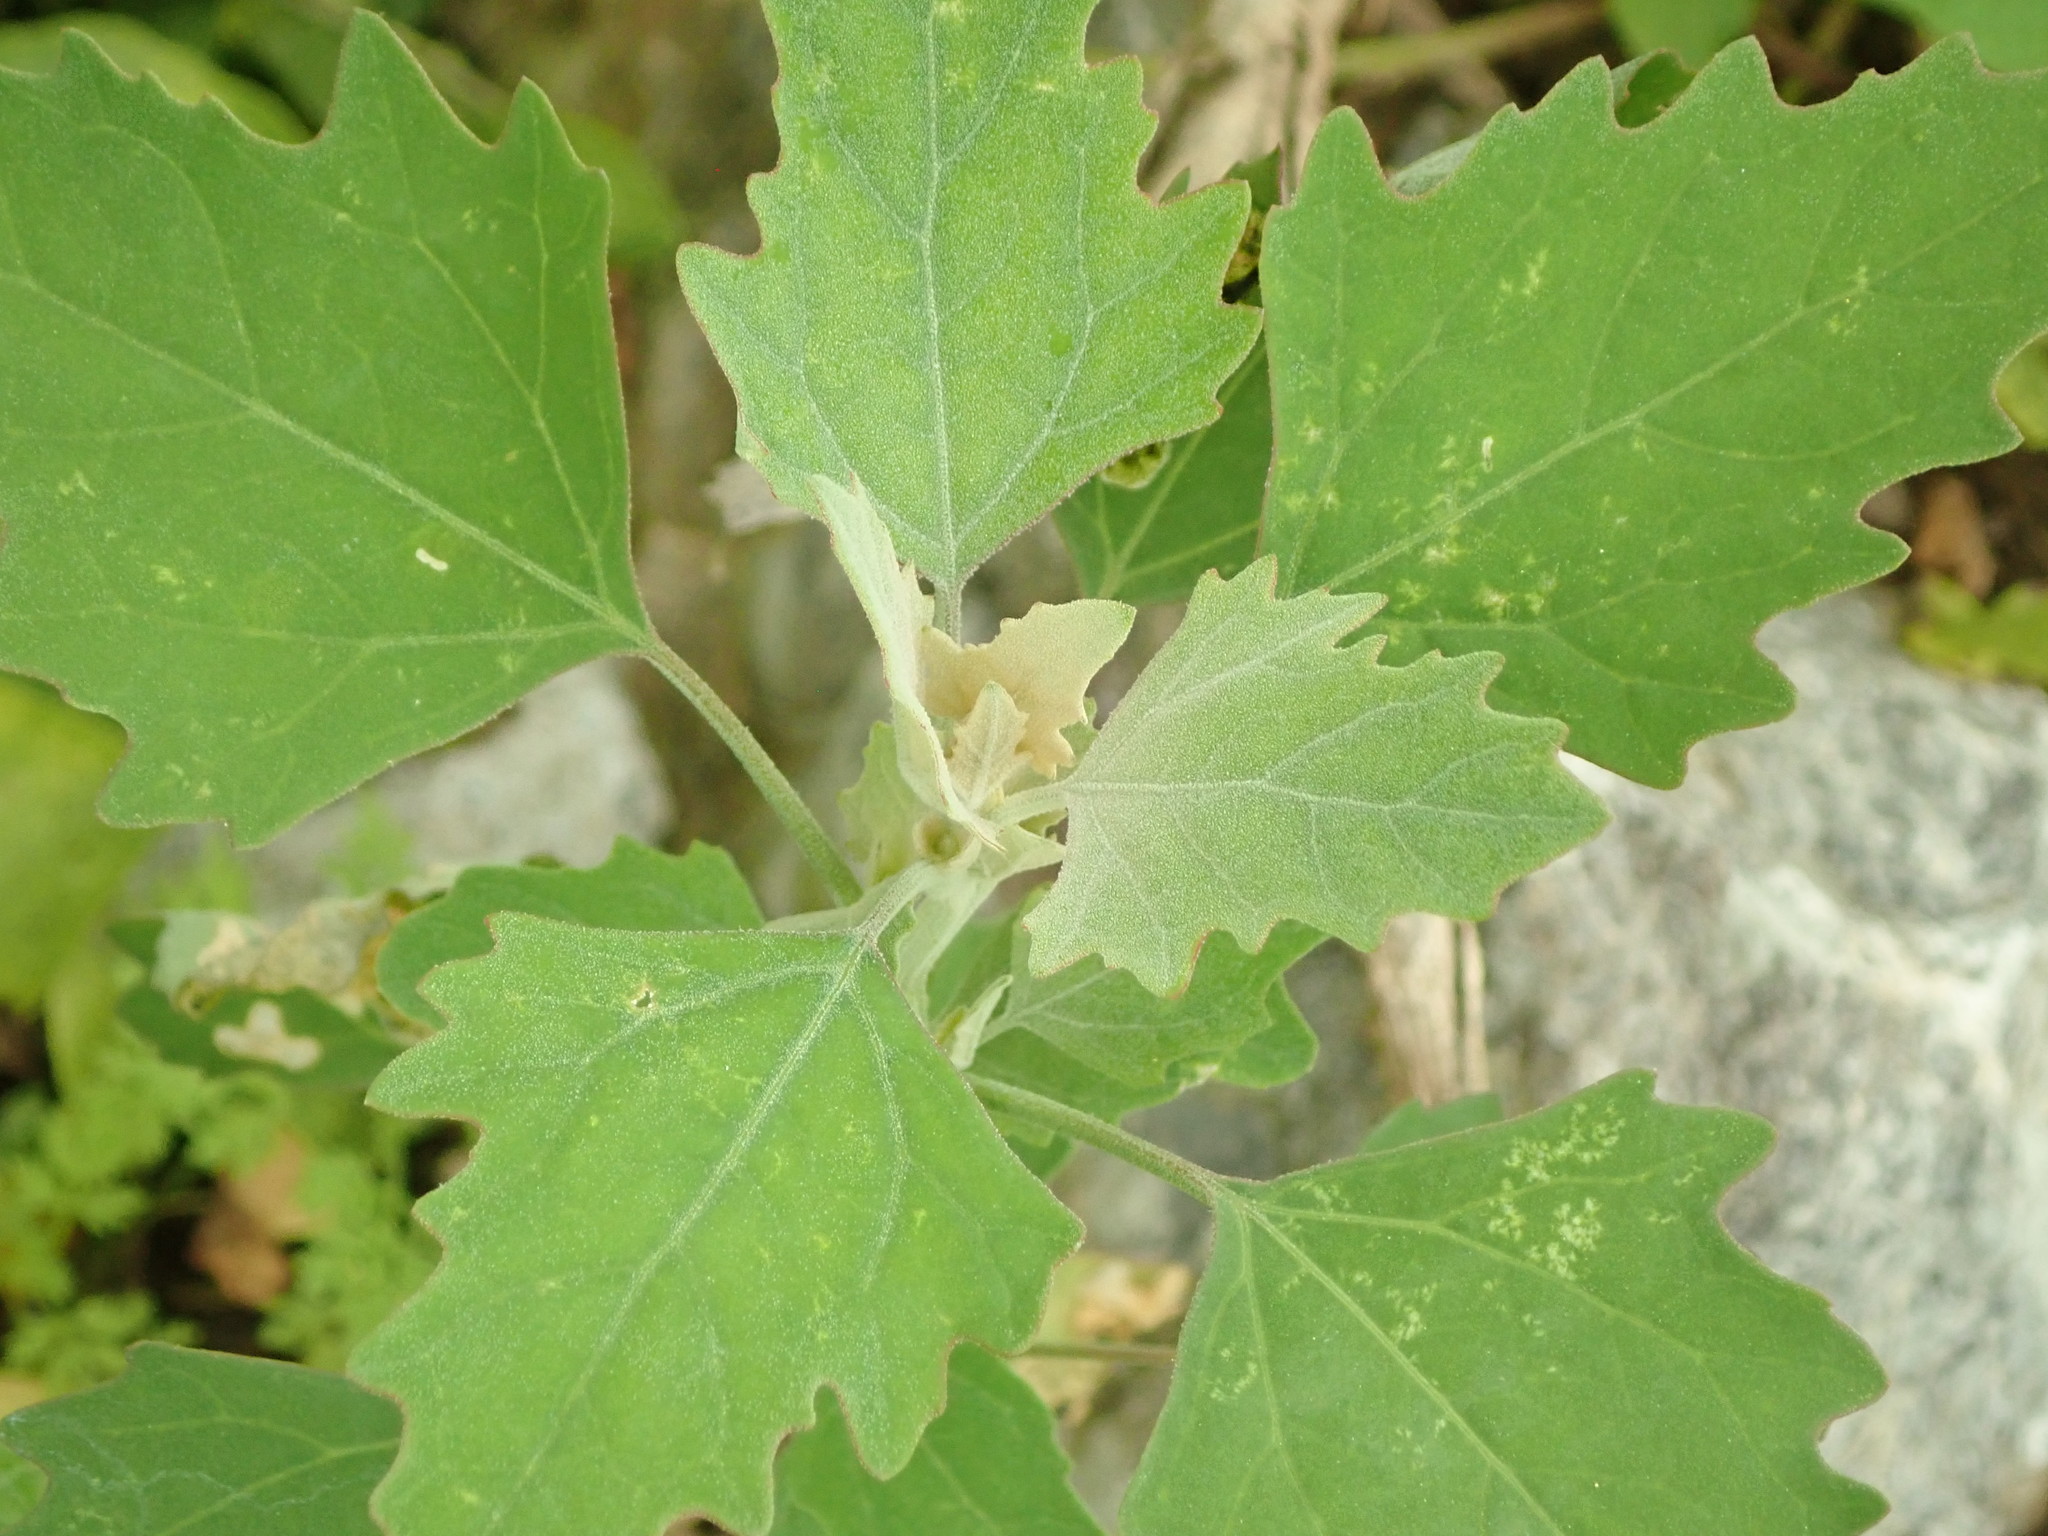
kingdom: Plantae
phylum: Tracheophyta
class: Magnoliopsida
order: Caryophyllales
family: Amaranthaceae
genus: Chenopodium
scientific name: Chenopodium album
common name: Fat-hen
